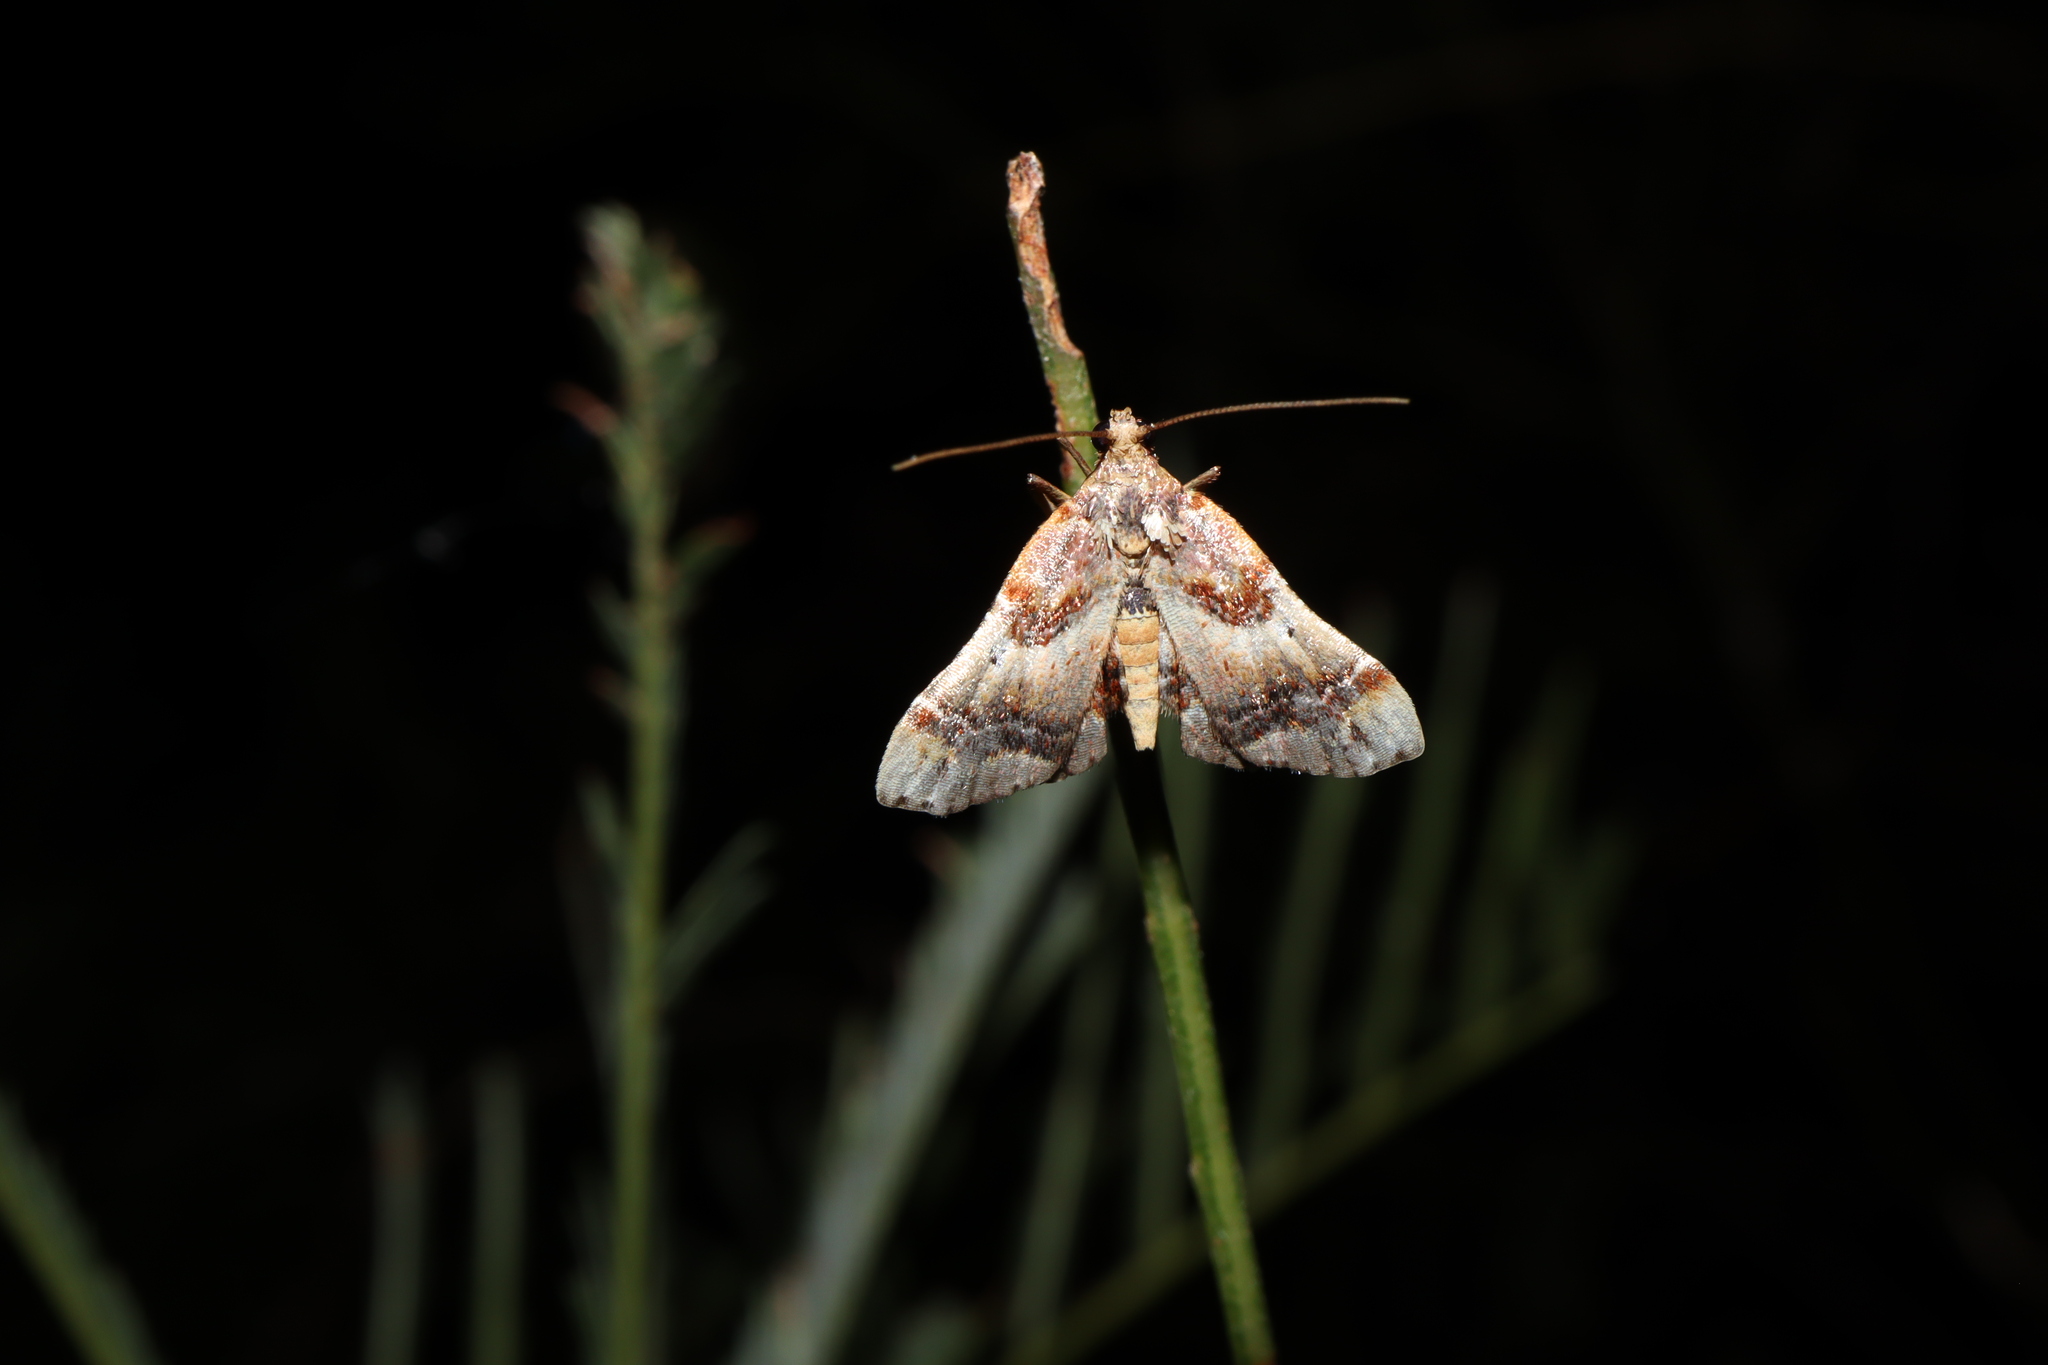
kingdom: Animalia
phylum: Arthropoda
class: Insecta
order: Lepidoptera
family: Pyralidae
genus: Scenedra
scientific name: Scenedra decoratalis
